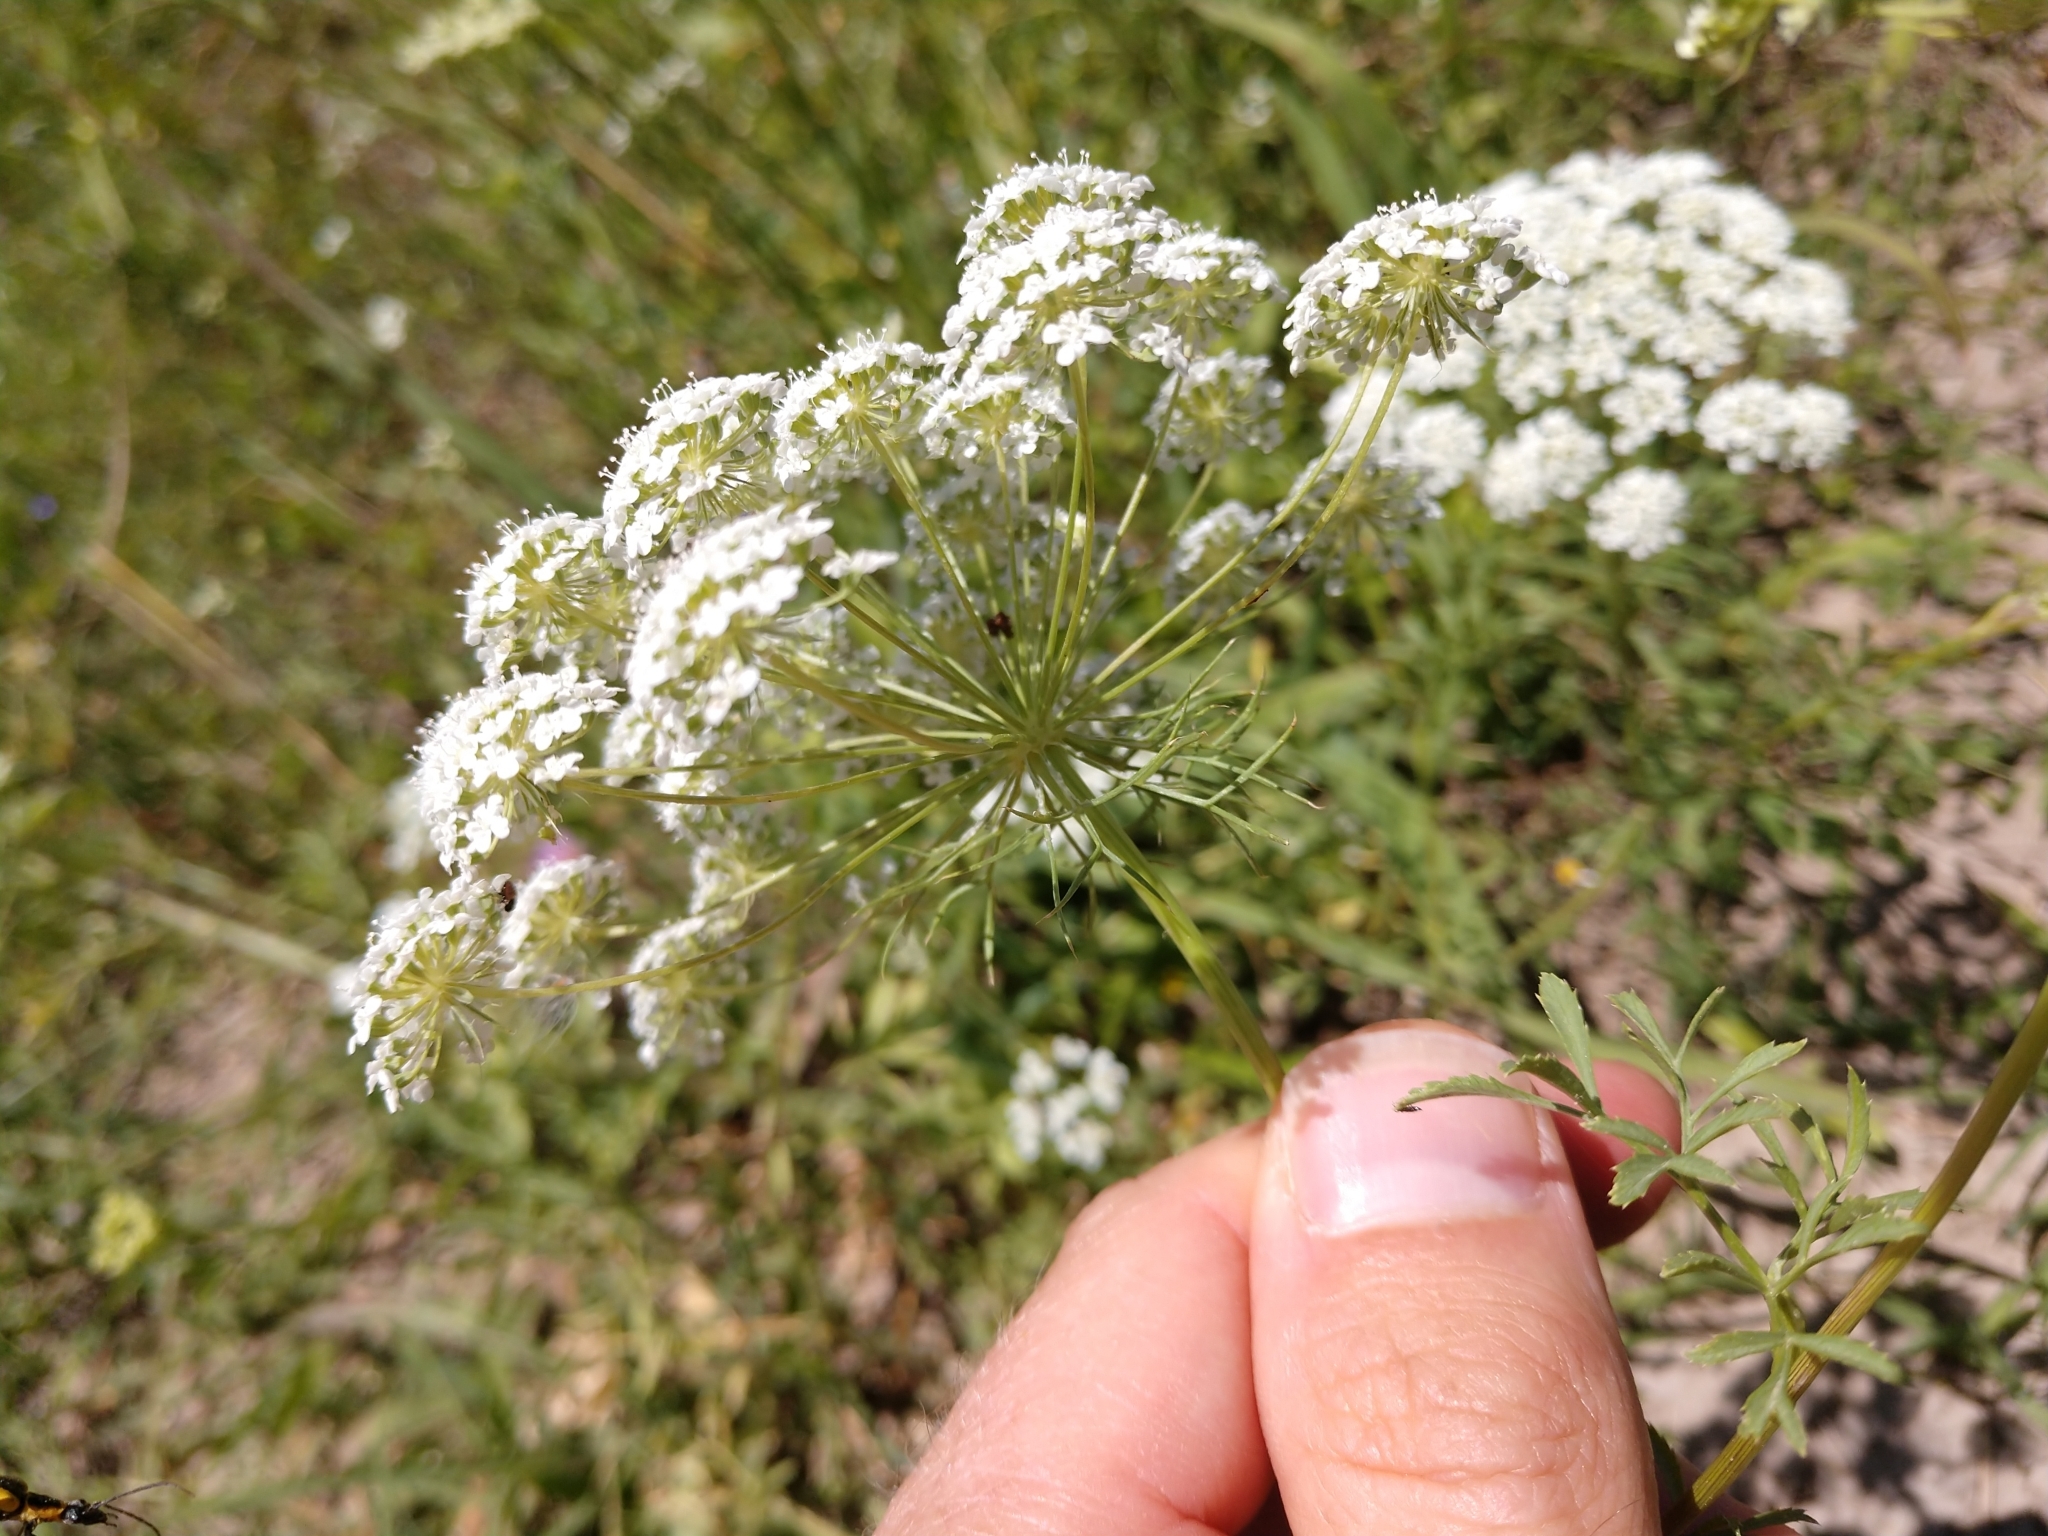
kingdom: Plantae
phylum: Tracheophyta
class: Magnoliopsida
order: Apiales
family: Apiaceae
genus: Ammi
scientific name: Ammi majus
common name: Bullwort
